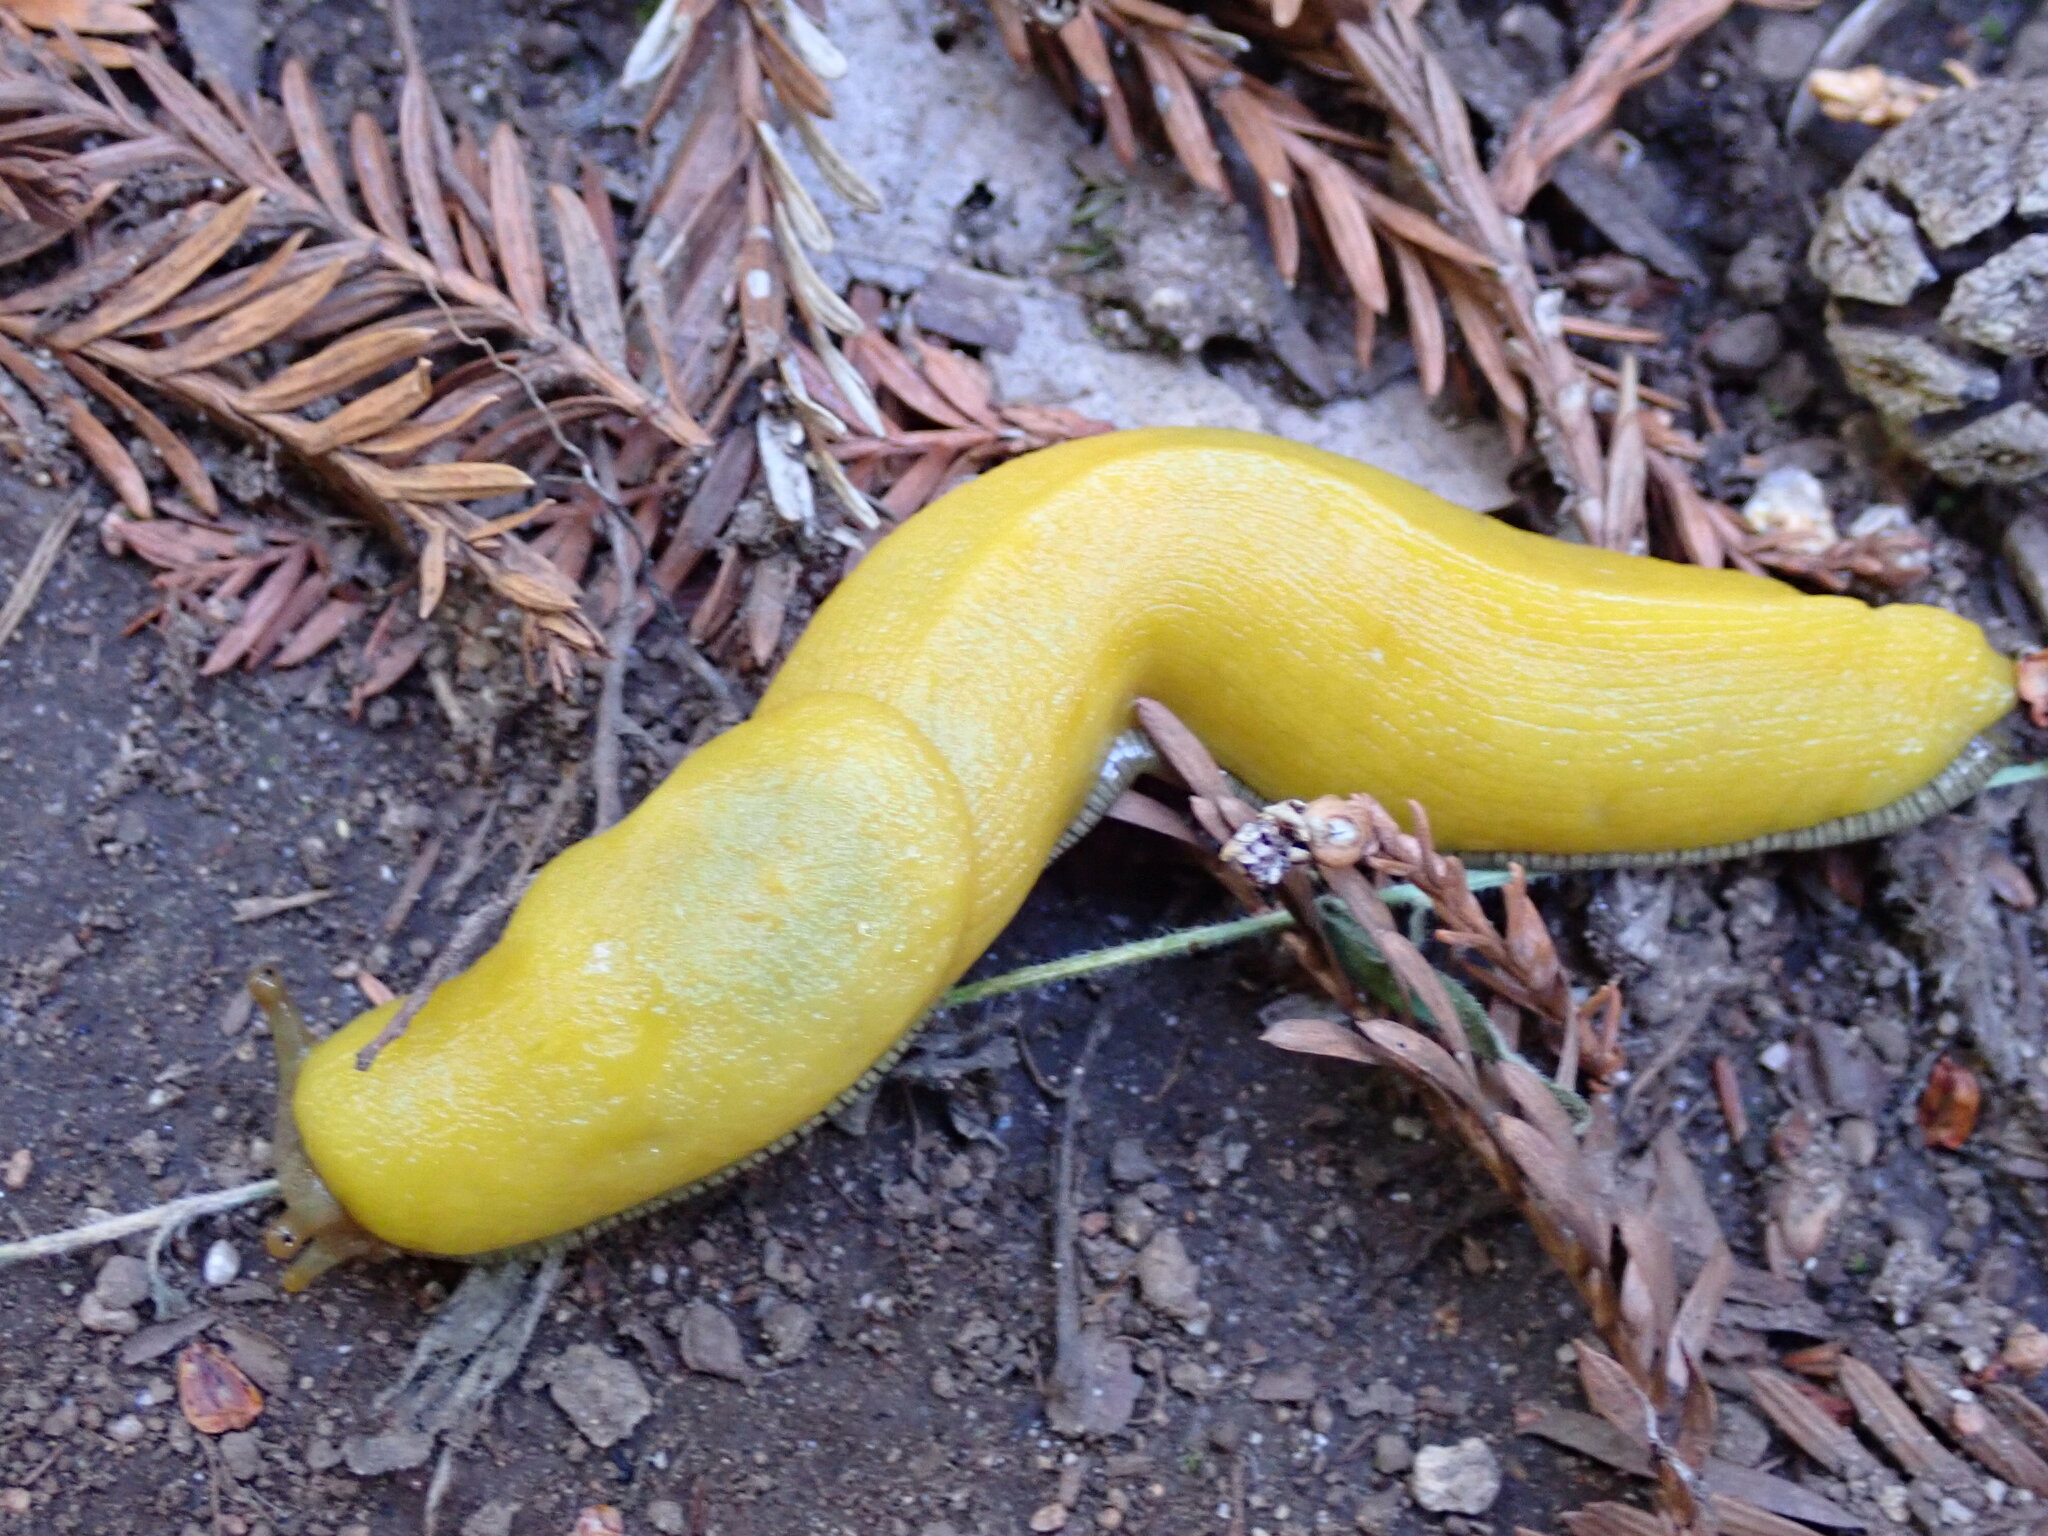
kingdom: Animalia
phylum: Mollusca
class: Gastropoda
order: Stylommatophora
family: Ariolimacidae
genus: Ariolimax
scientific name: Ariolimax stramineus
